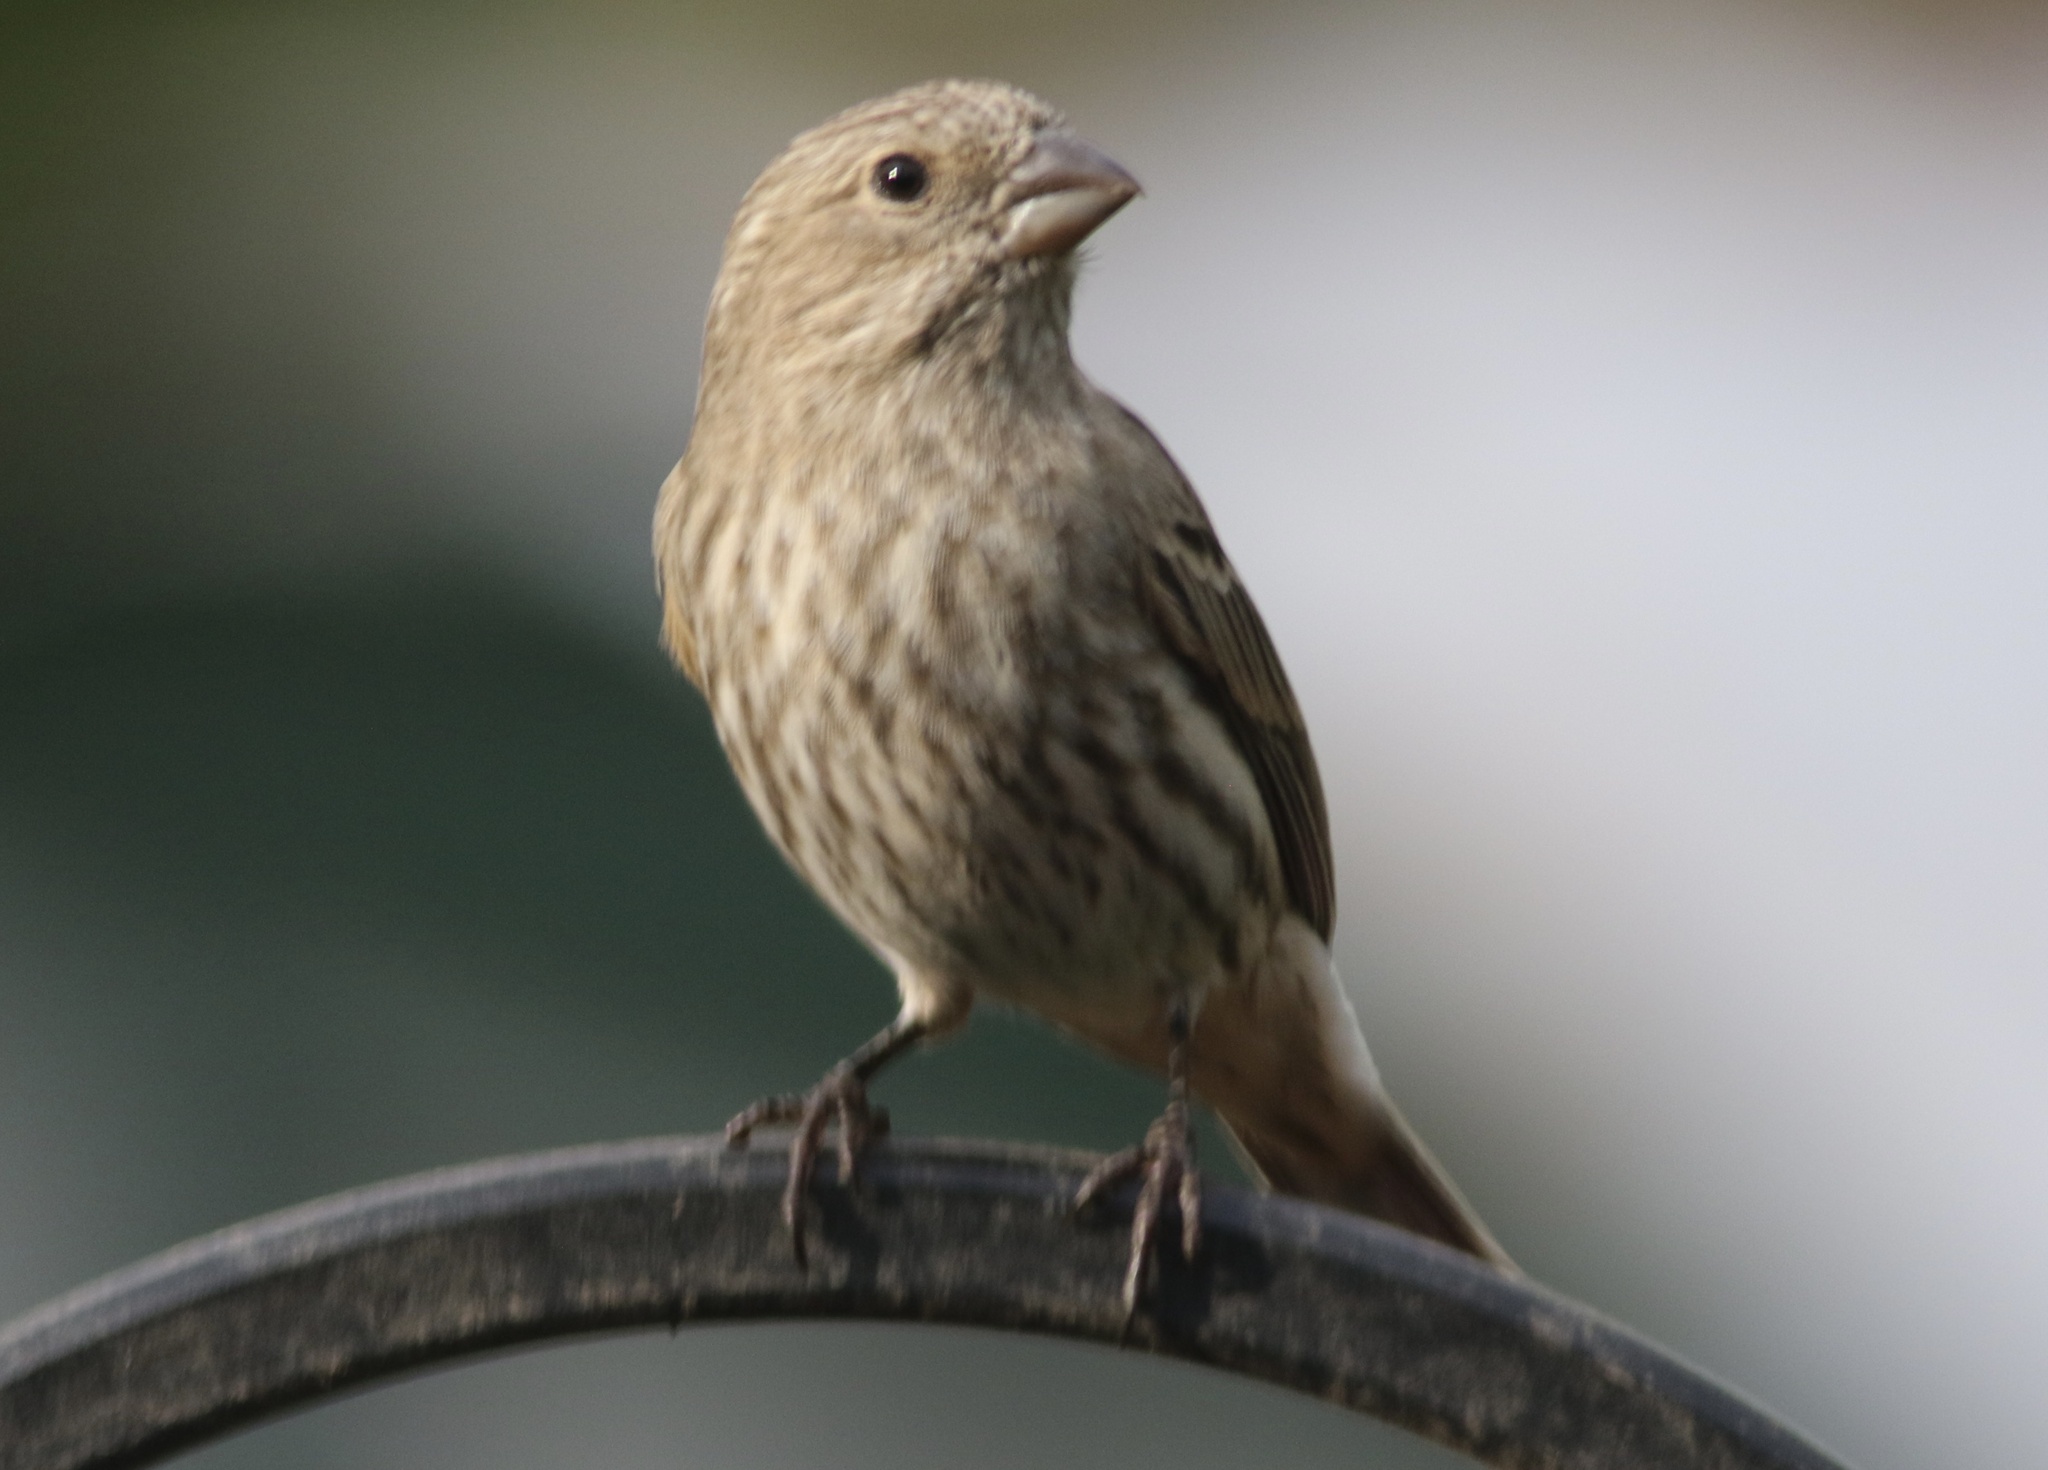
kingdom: Animalia
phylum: Chordata
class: Aves
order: Passeriformes
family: Fringillidae
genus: Haemorhous
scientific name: Haemorhous mexicanus
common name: House finch
